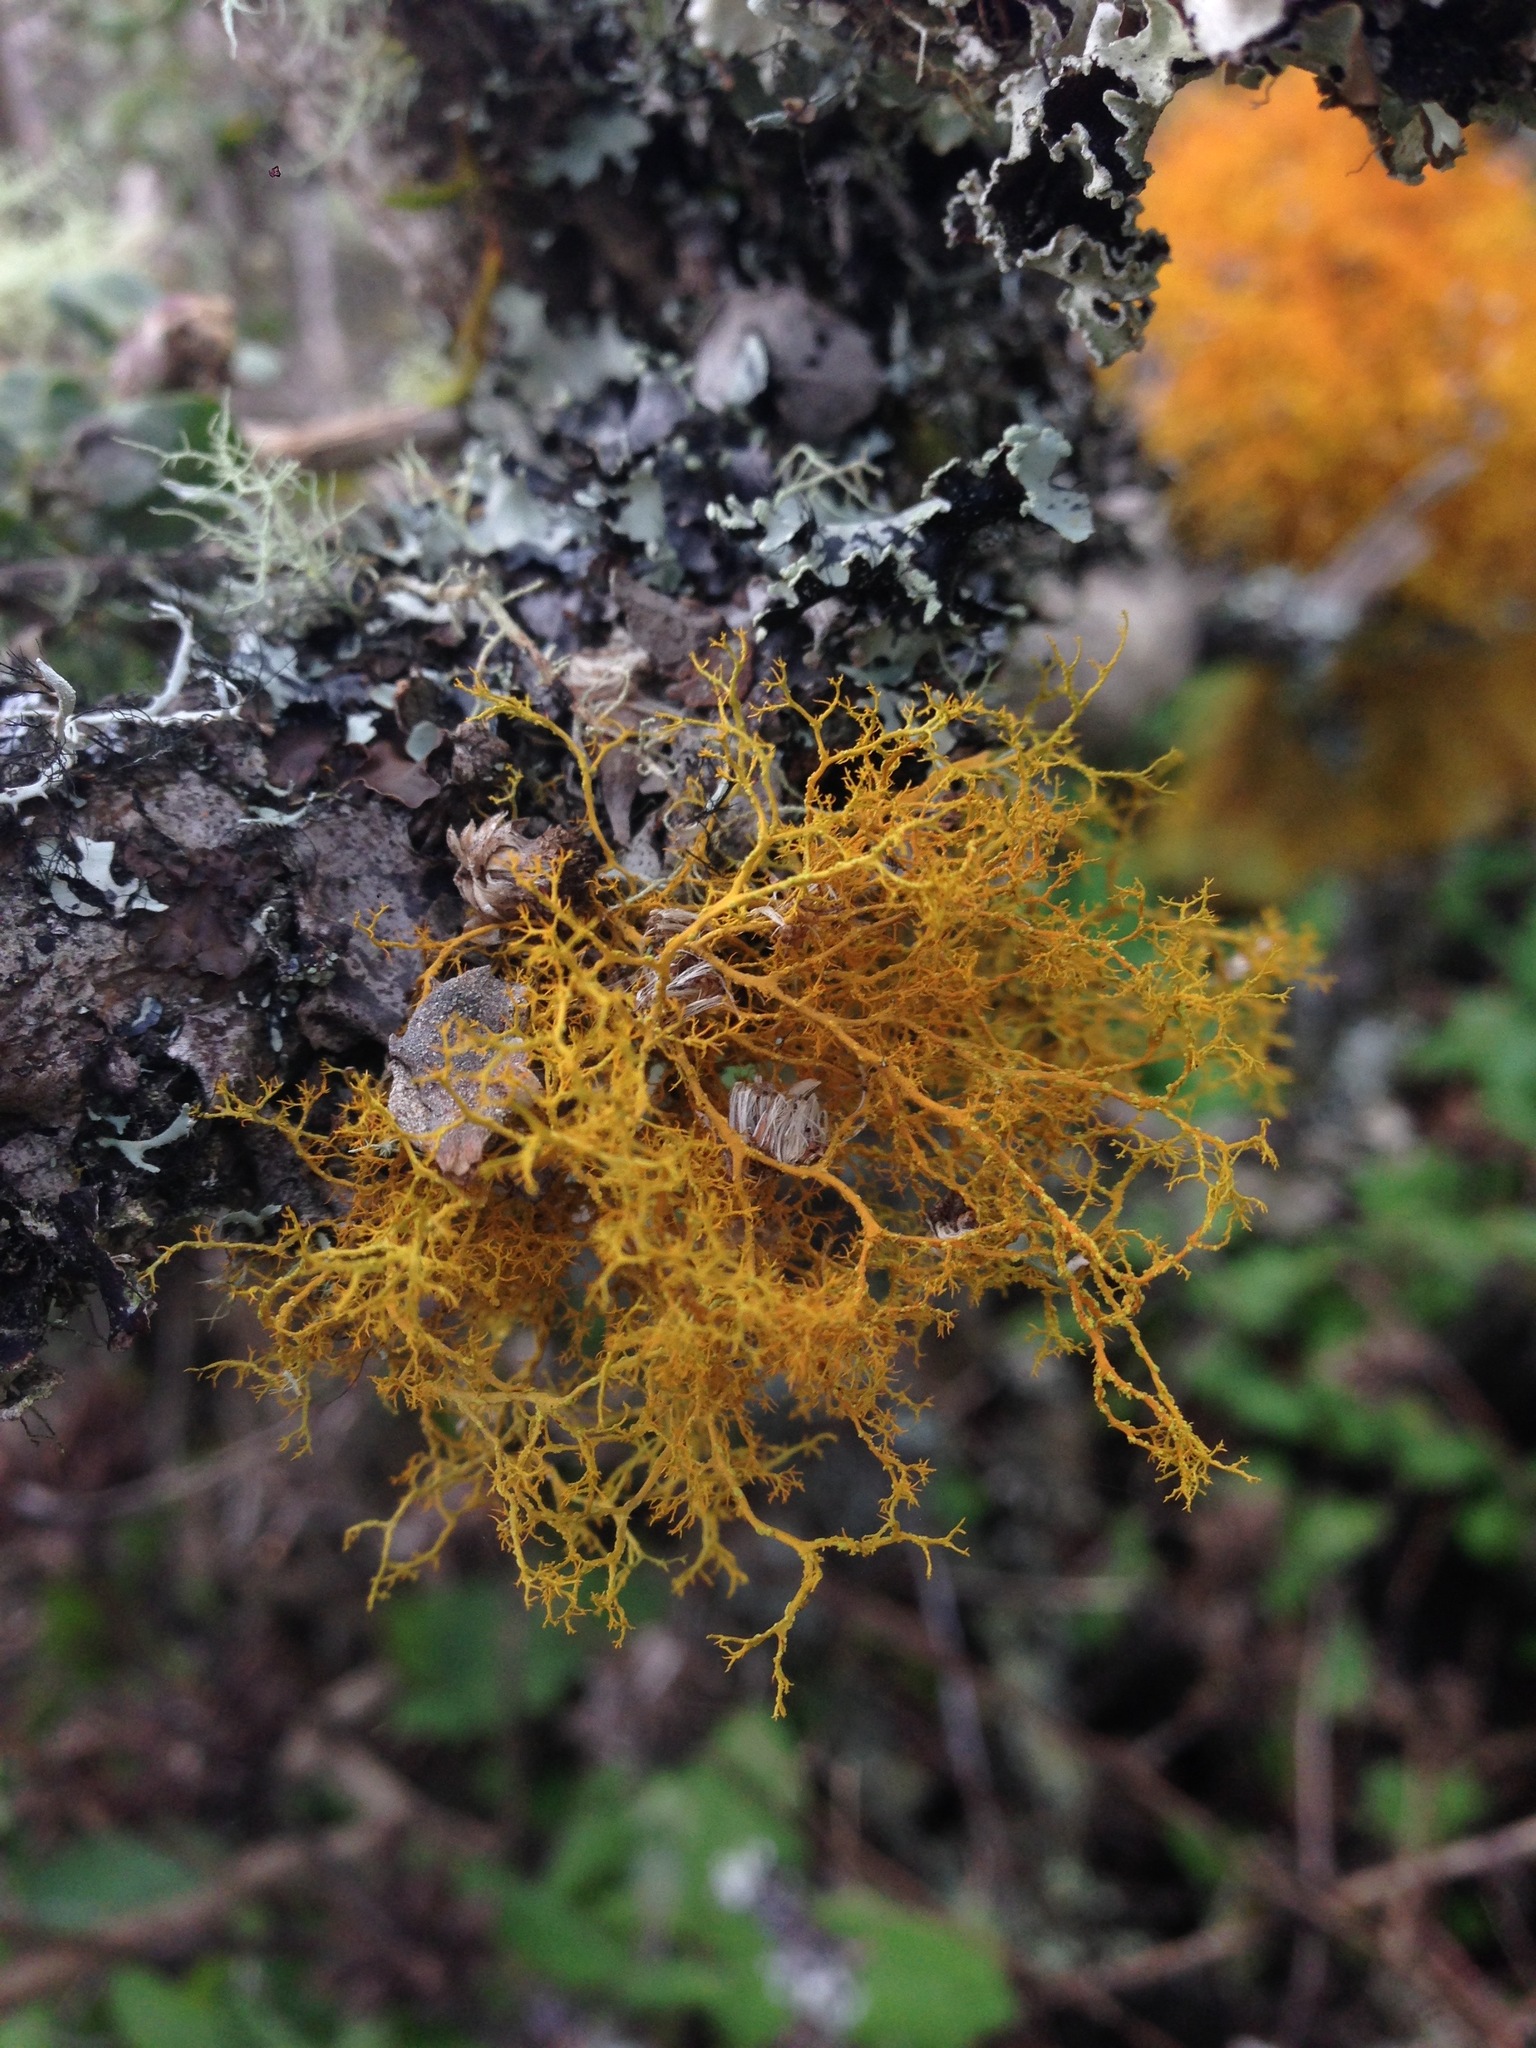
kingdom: Fungi
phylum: Ascomycota
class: Lecanoromycetes
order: Teloschistales
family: Teloschistaceae
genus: Teloschistes
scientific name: Teloschistes flavicans
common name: Golden hair-lichen
